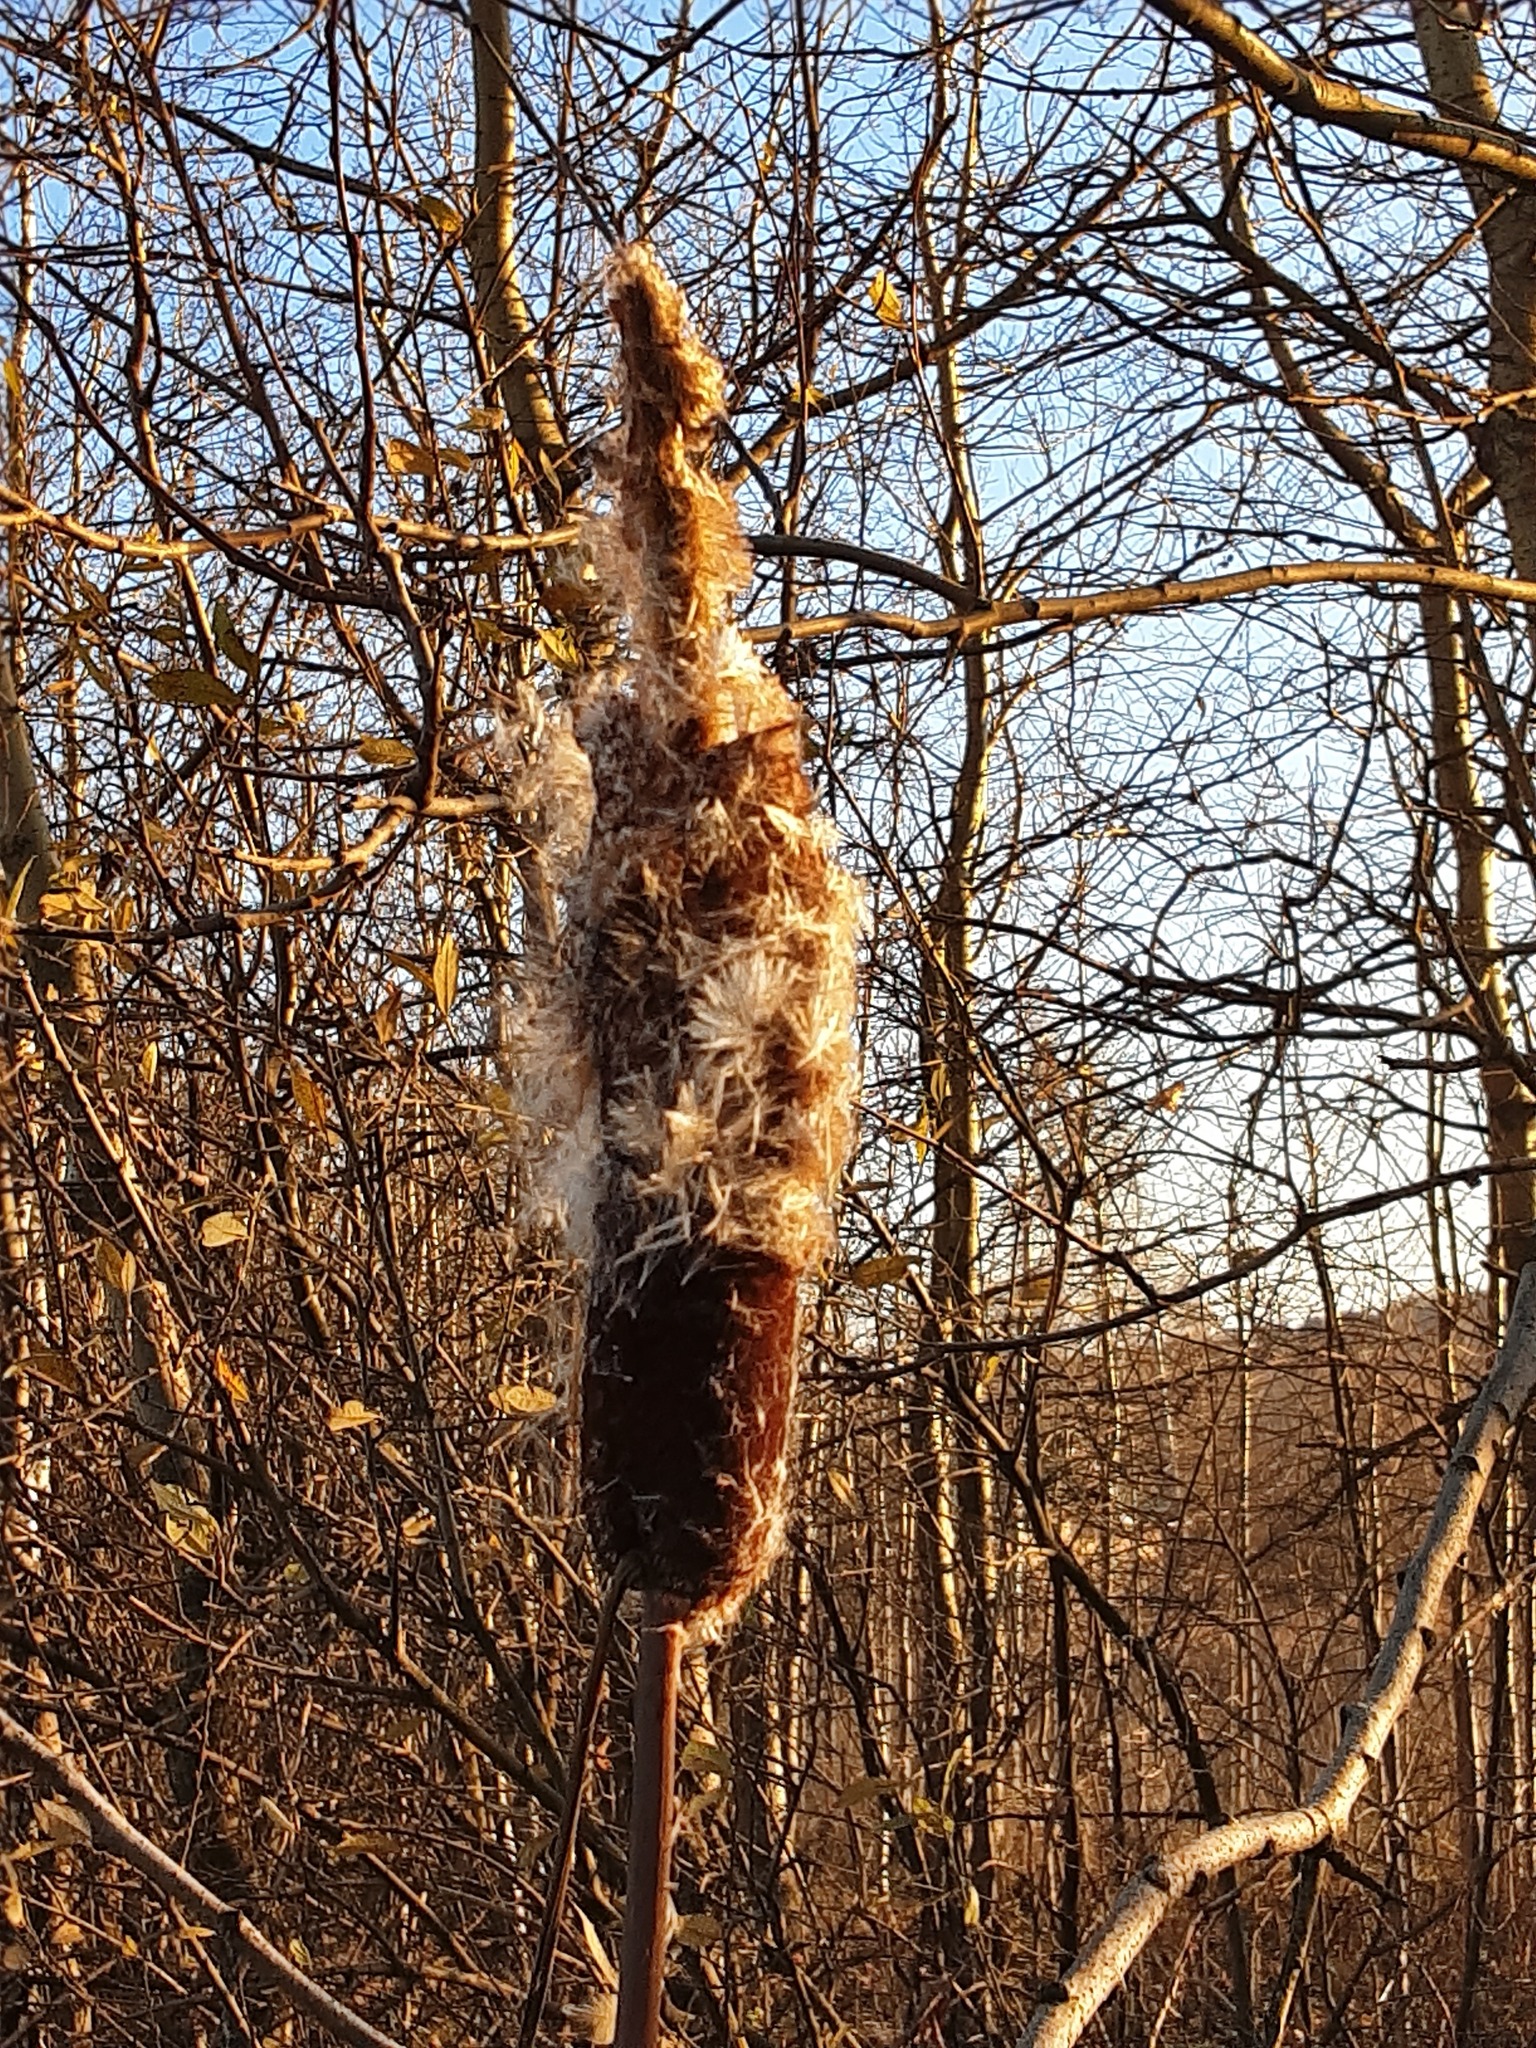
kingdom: Plantae
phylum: Tracheophyta
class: Liliopsida
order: Poales
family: Typhaceae
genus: Typha
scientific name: Typha latifolia
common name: Broadleaf cattail
